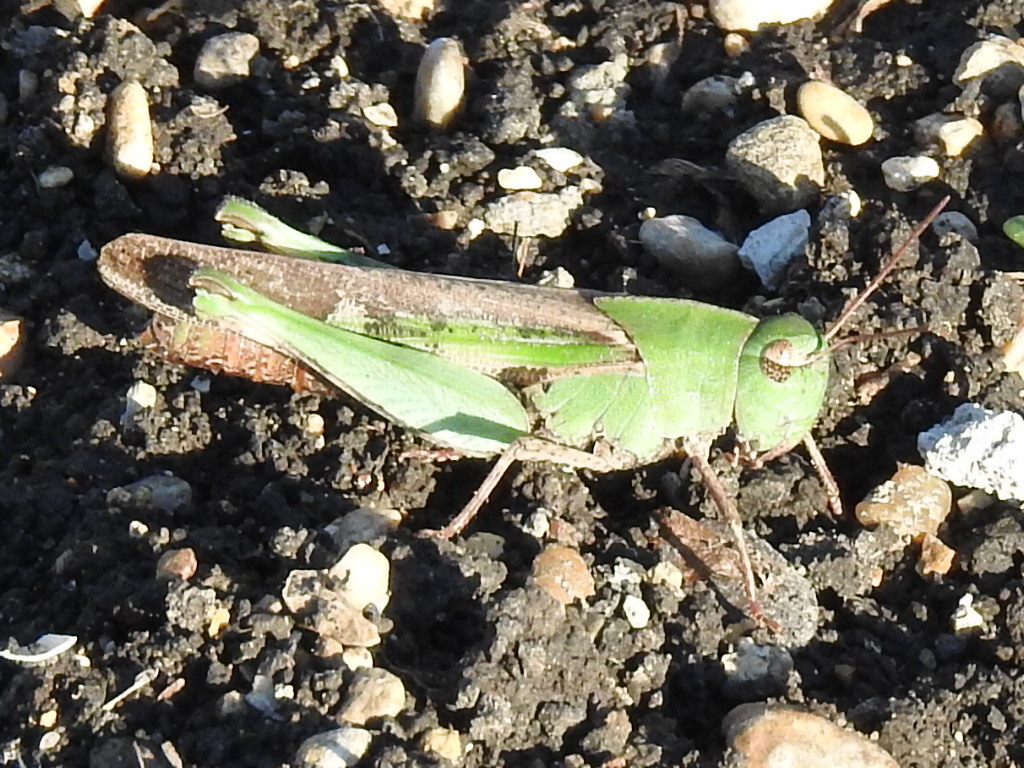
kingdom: Animalia
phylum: Arthropoda
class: Insecta
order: Orthoptera
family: Acrididae
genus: Chortophaga
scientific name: Chortophaga viridifasciata
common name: Green-striped grasshopper
